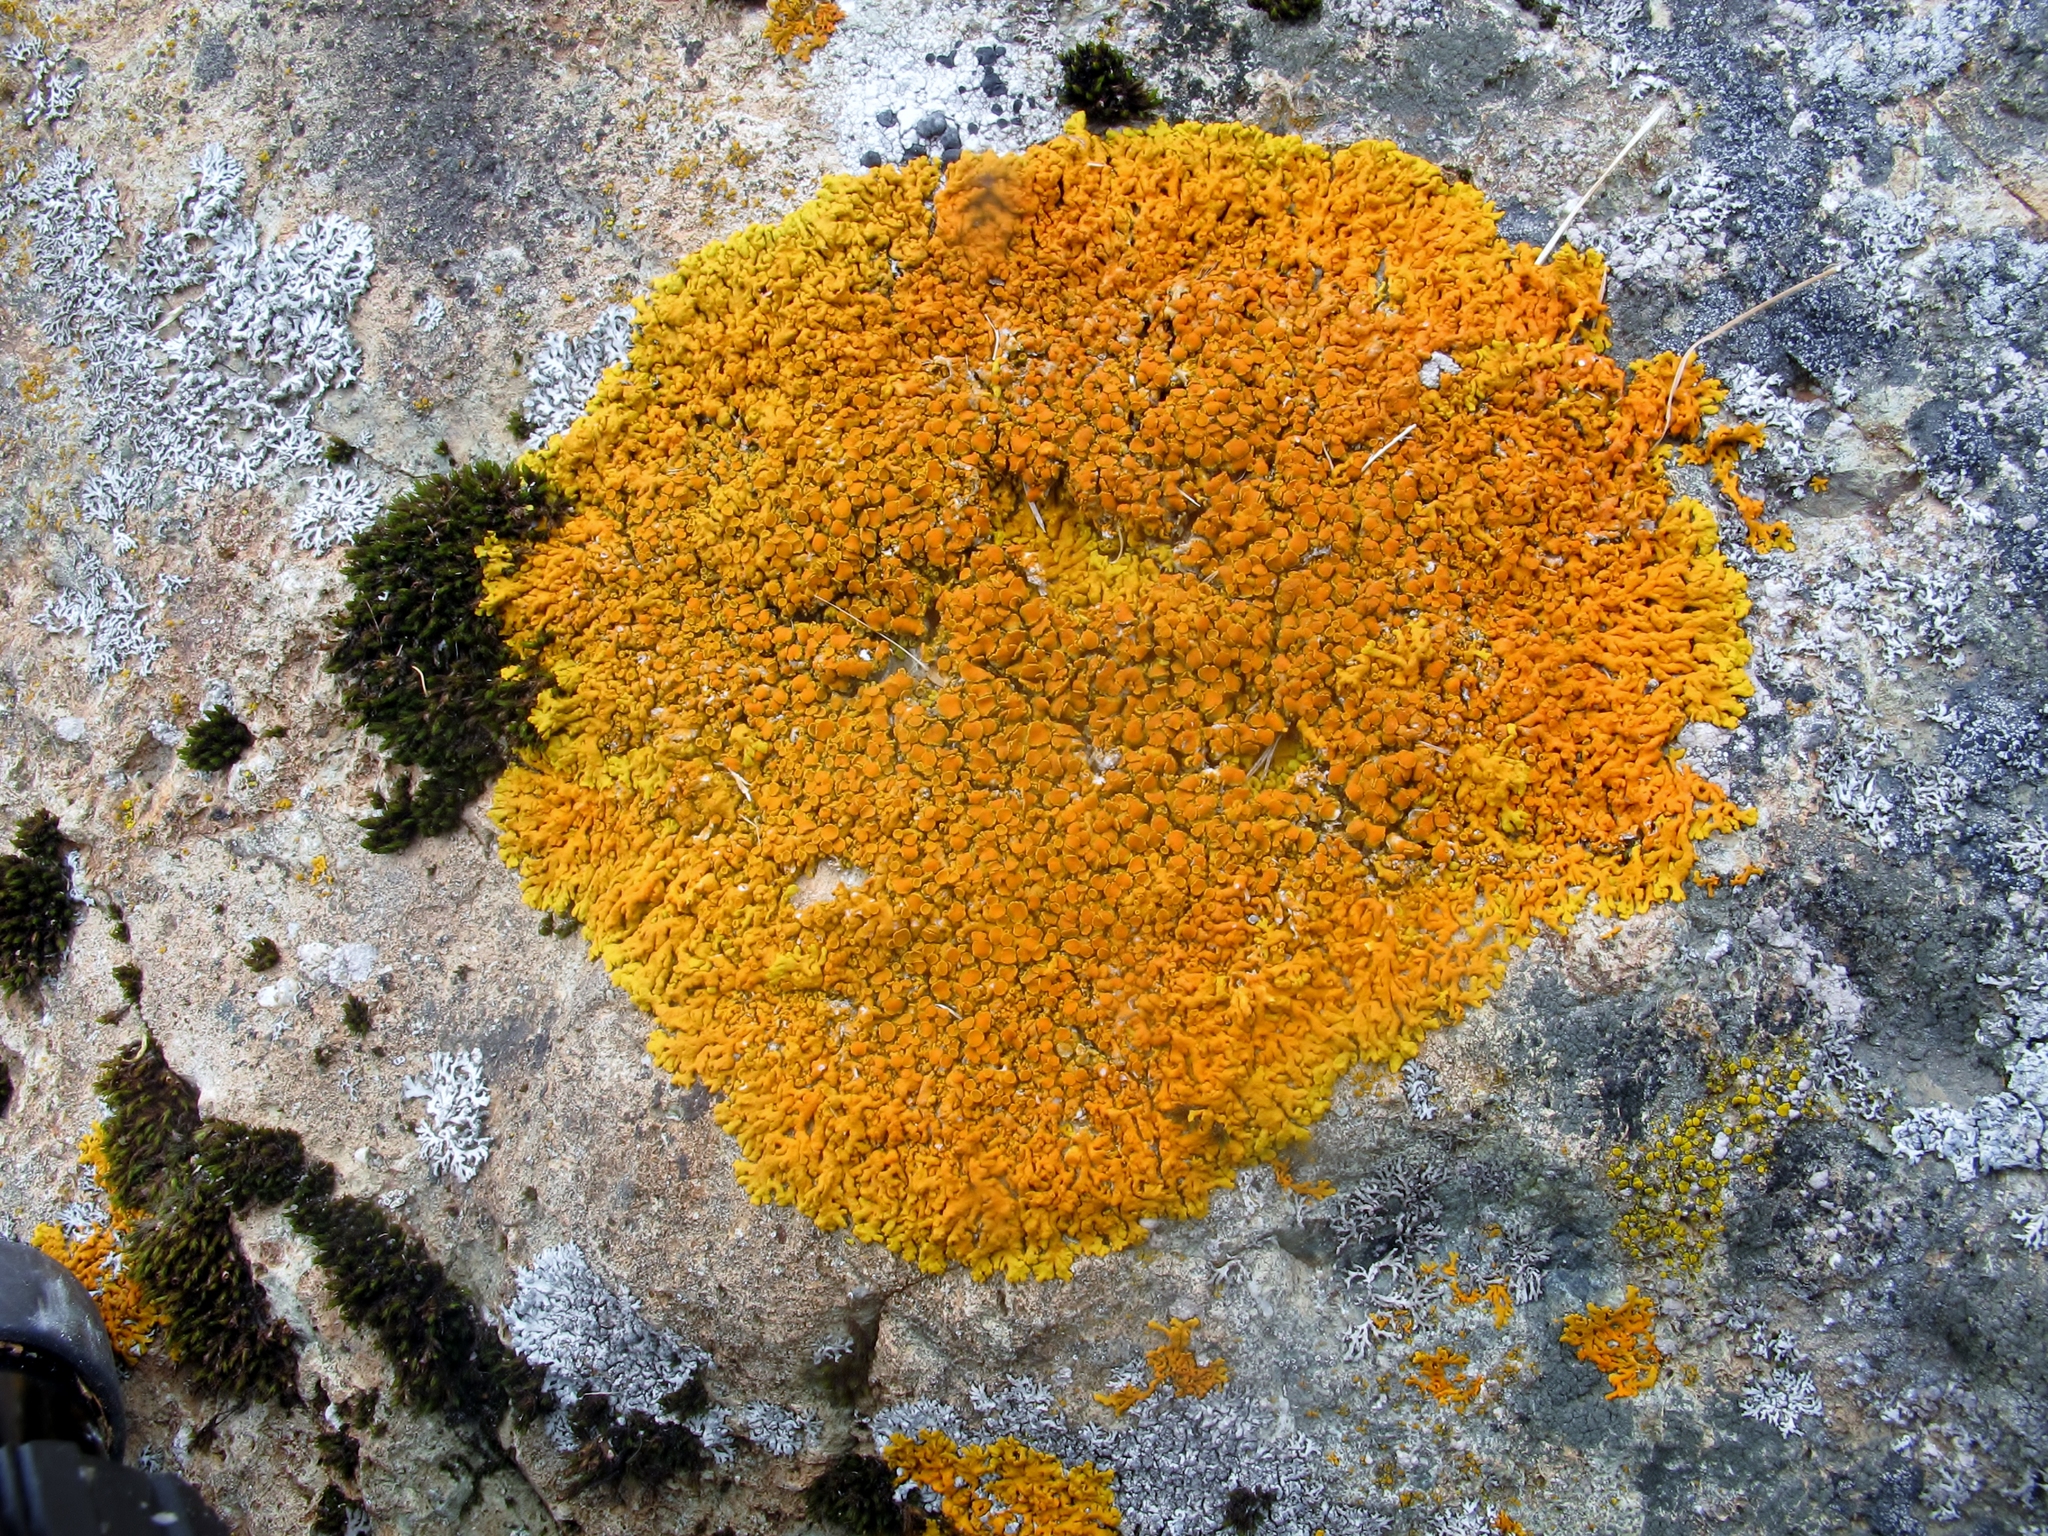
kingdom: Fungi
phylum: Ascomycota
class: Lecanoromycetes
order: Teloschistales
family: Teloschistaceae
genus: Xanthoria
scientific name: Xanthoria elegans
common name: Elegant sunburst lichen
